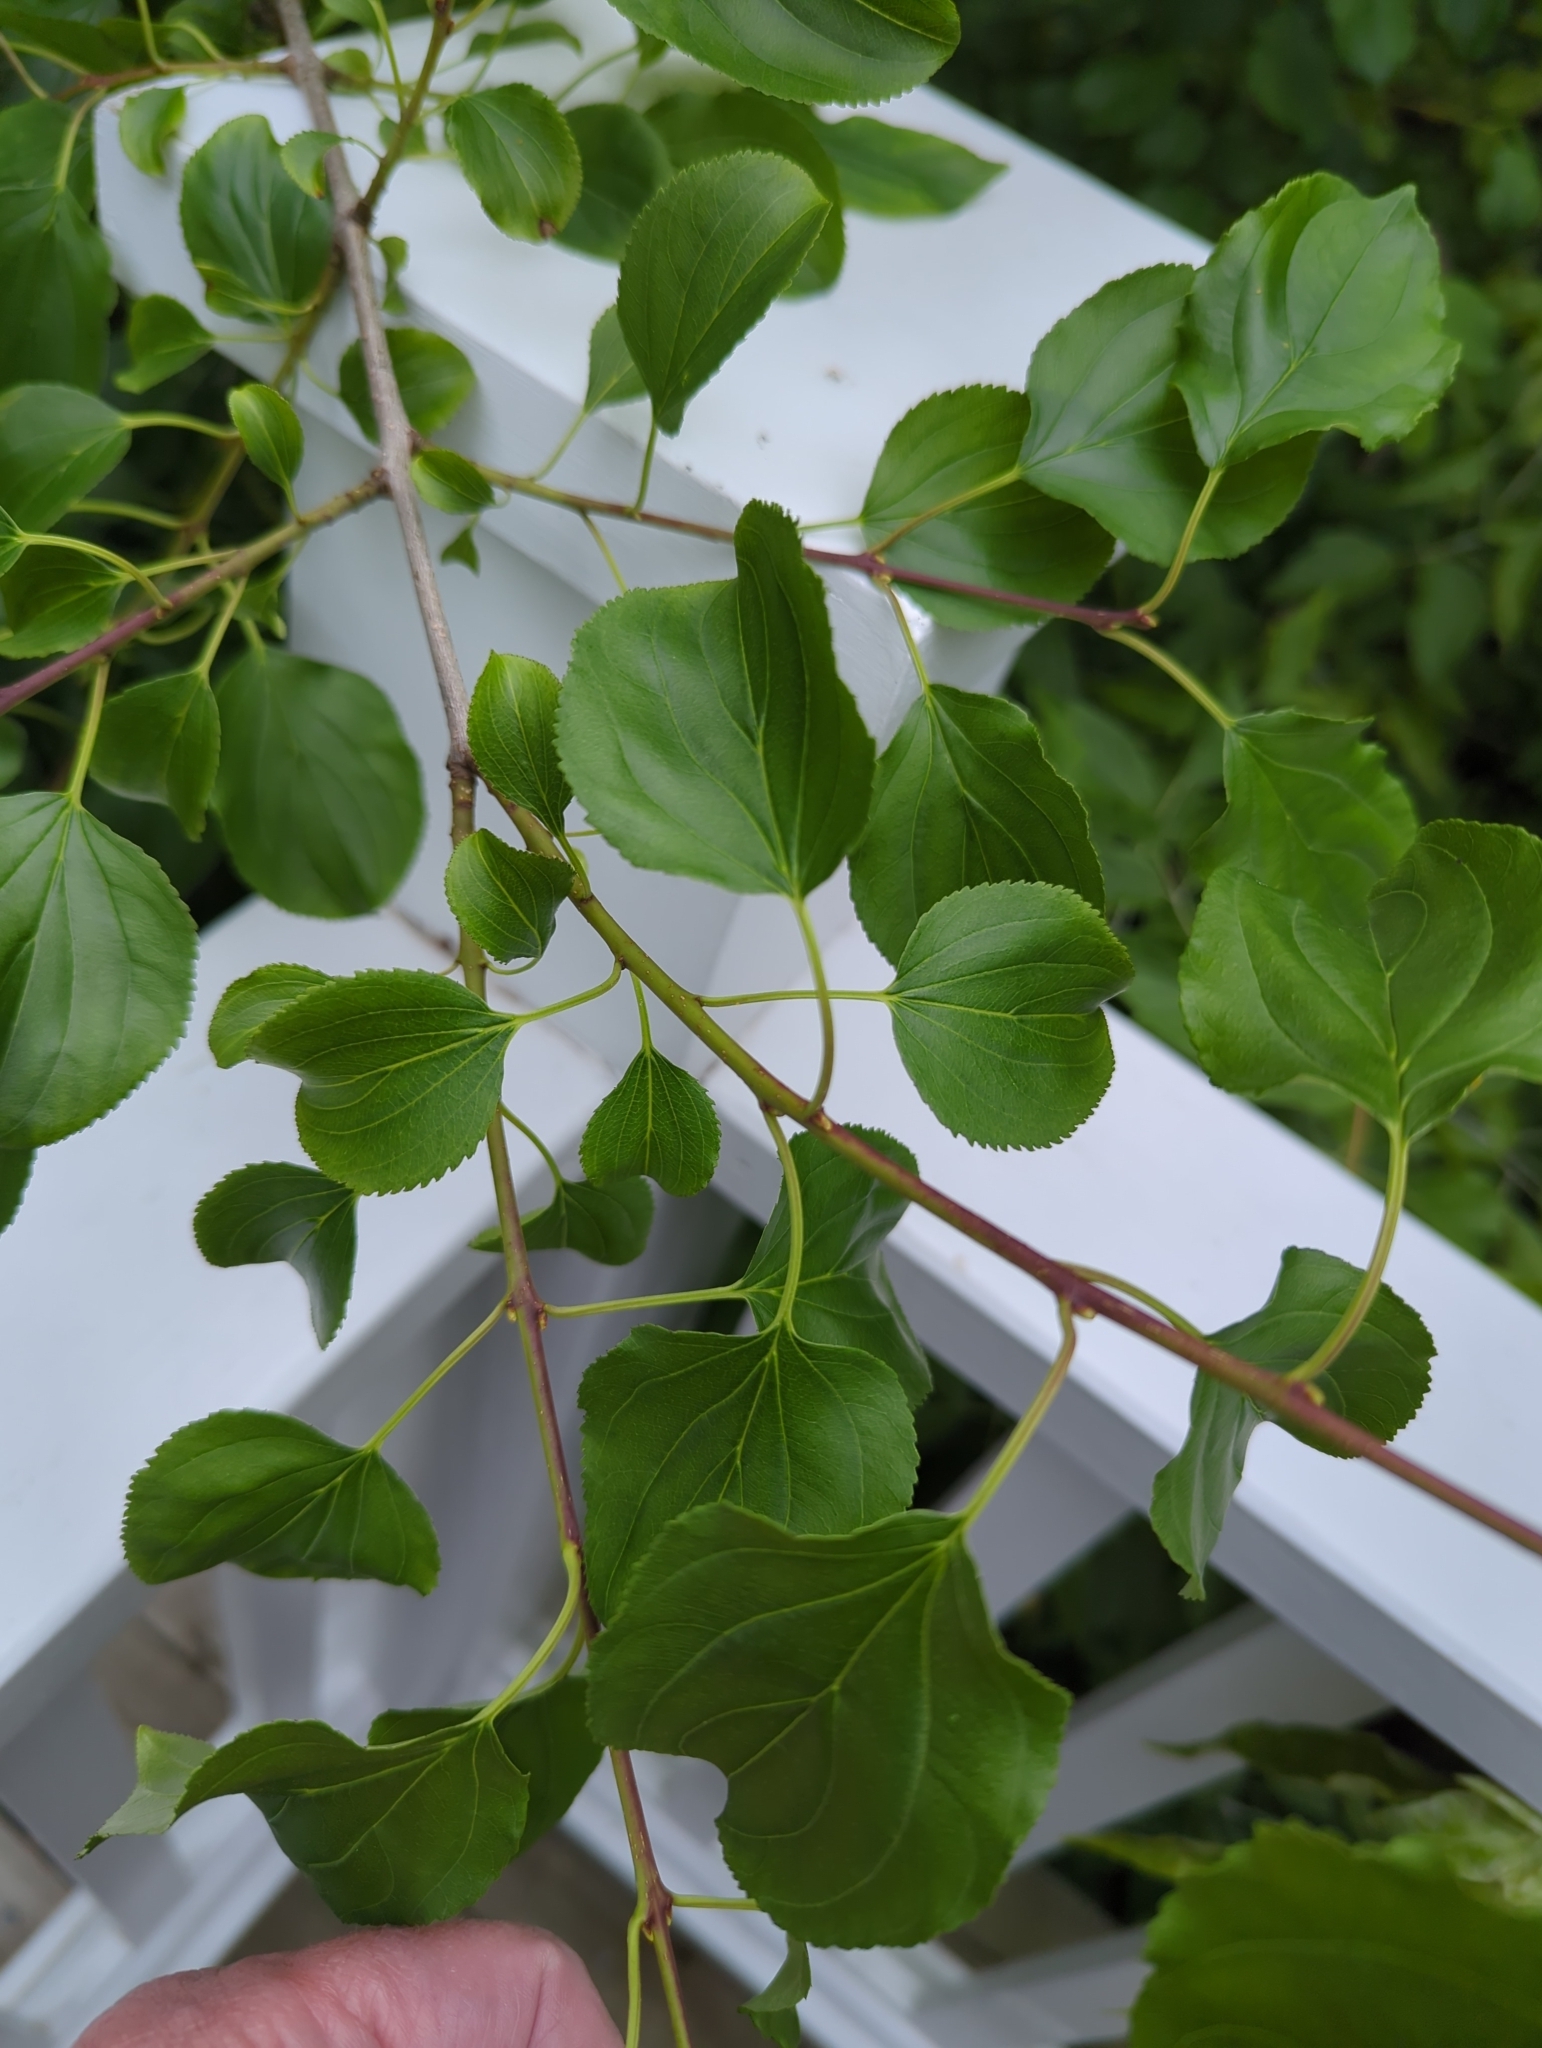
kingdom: Plantae
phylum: Tracheophyta
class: Magnoliopsida
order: Rosales
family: Rhamnaceae
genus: Rhamnus
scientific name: Rhamnus cathartica
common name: Common buckthorn
